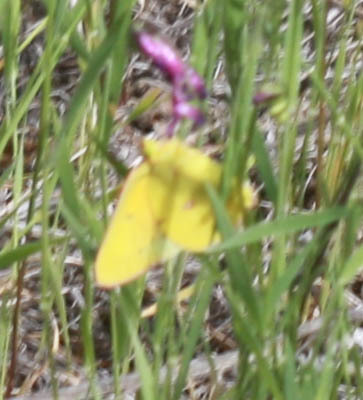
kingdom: Animalia
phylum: Arthropoda
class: Insecta
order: Lepidoptera
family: Pieridae
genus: Colias
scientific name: Colias eurytheme
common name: Alfalfa butterfly
